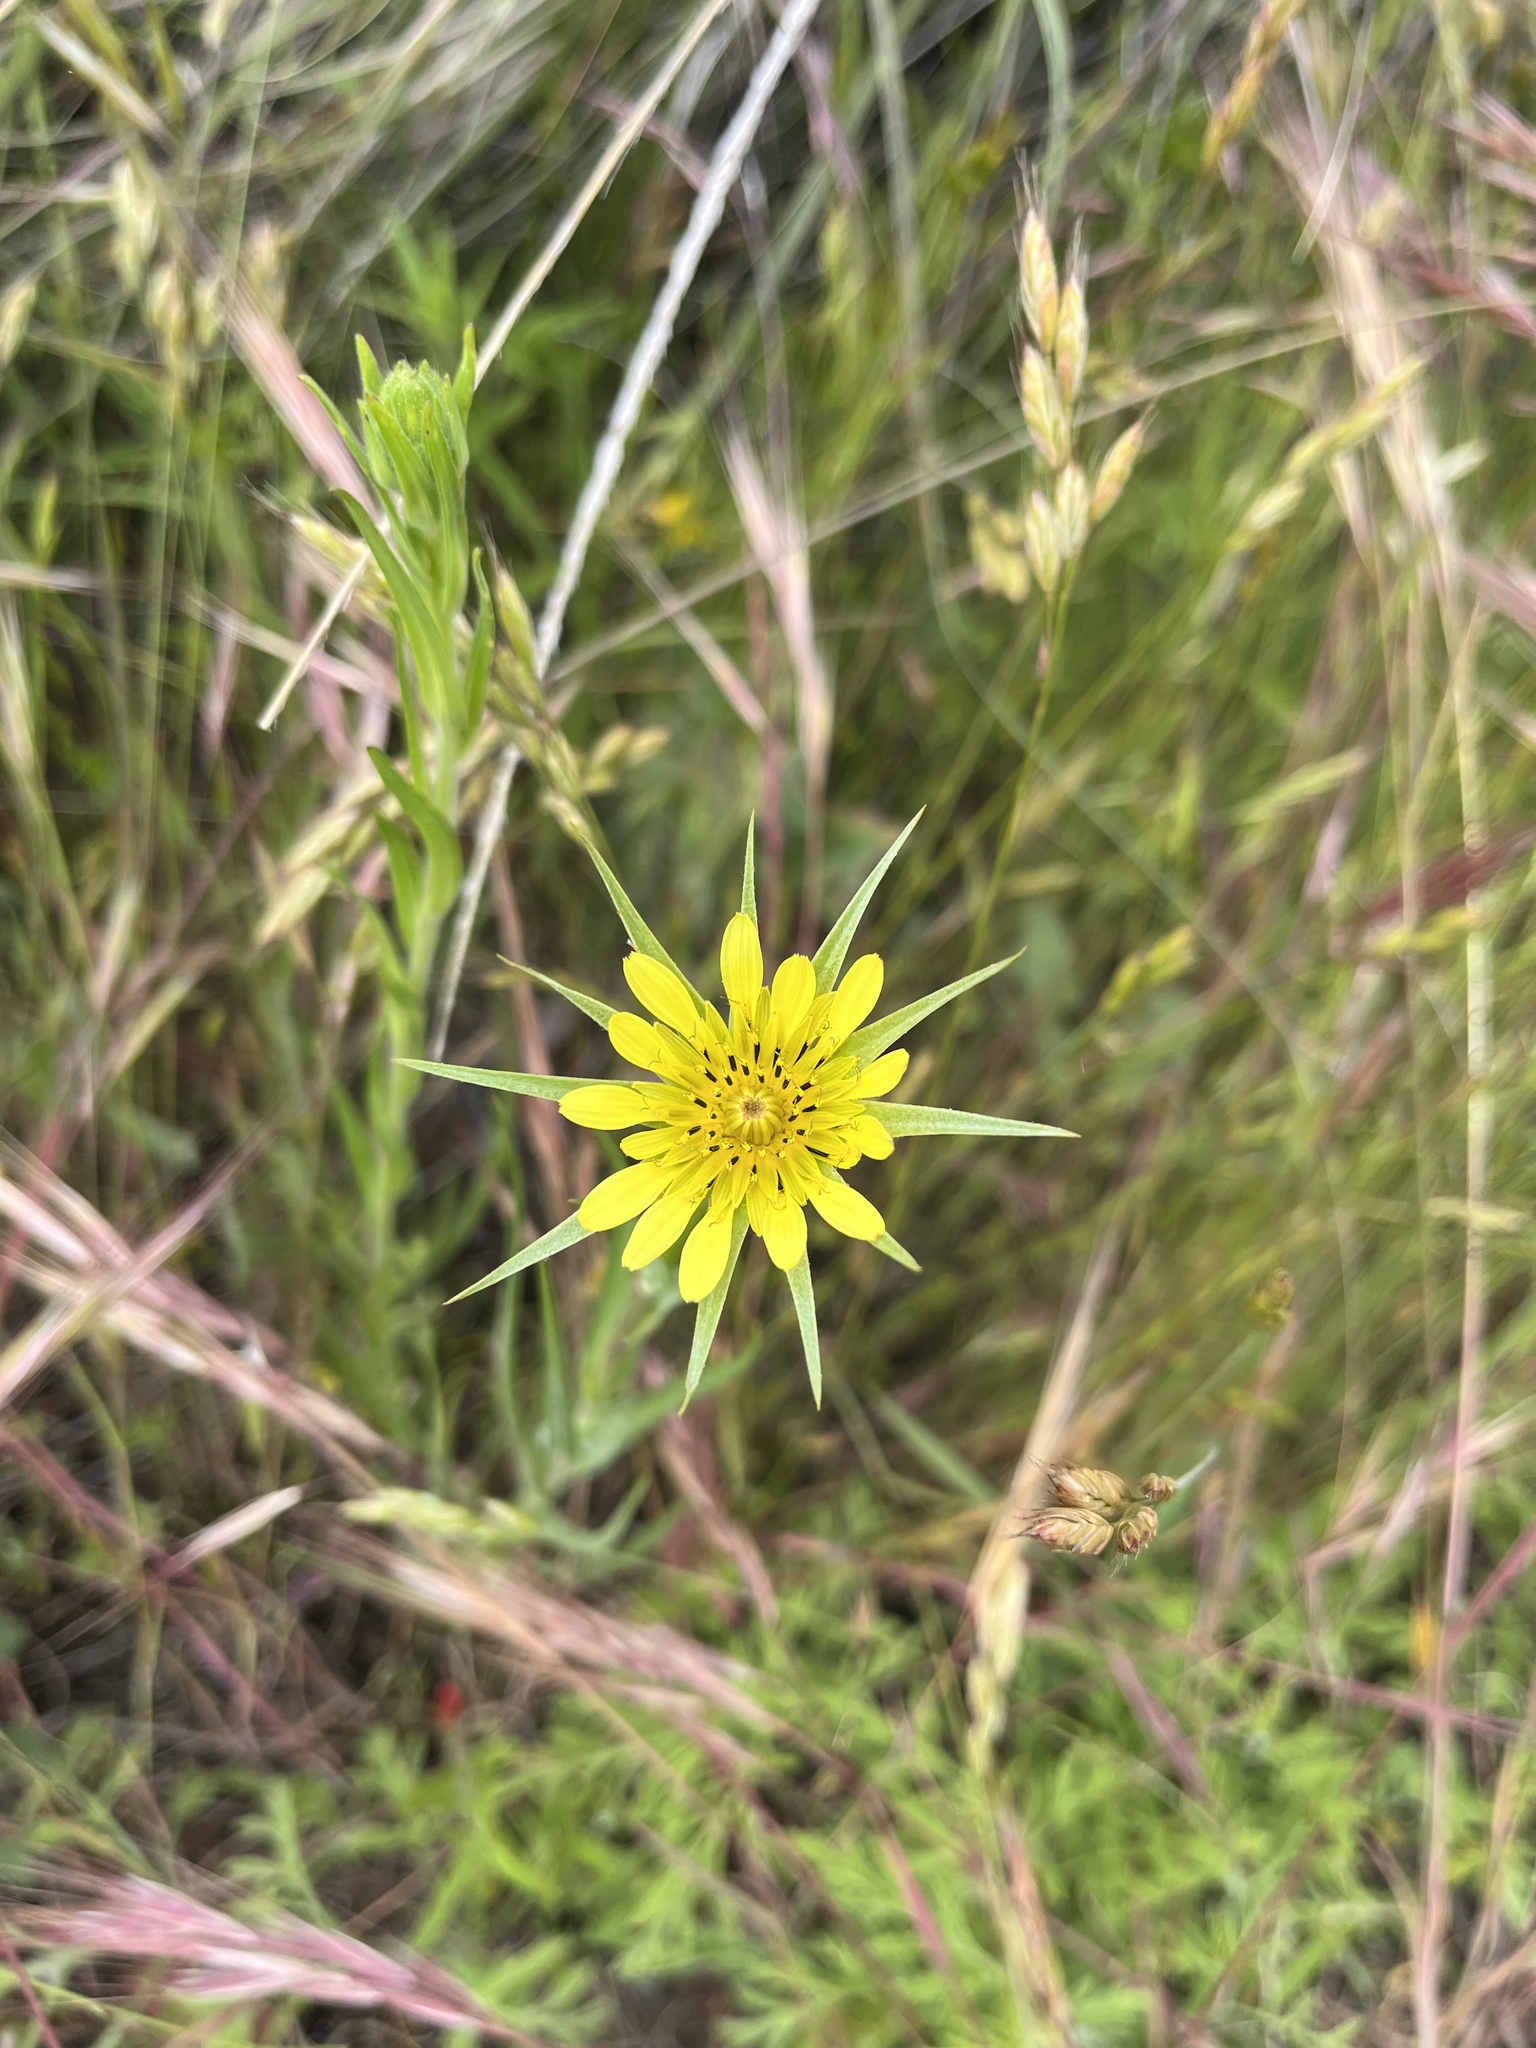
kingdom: Plantae
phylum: Tracheophyta
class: Magnoliopsida
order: Asterales
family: Asteraceae
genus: Tragopogon
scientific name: Tragopogon dubius
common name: Yellow salsify
